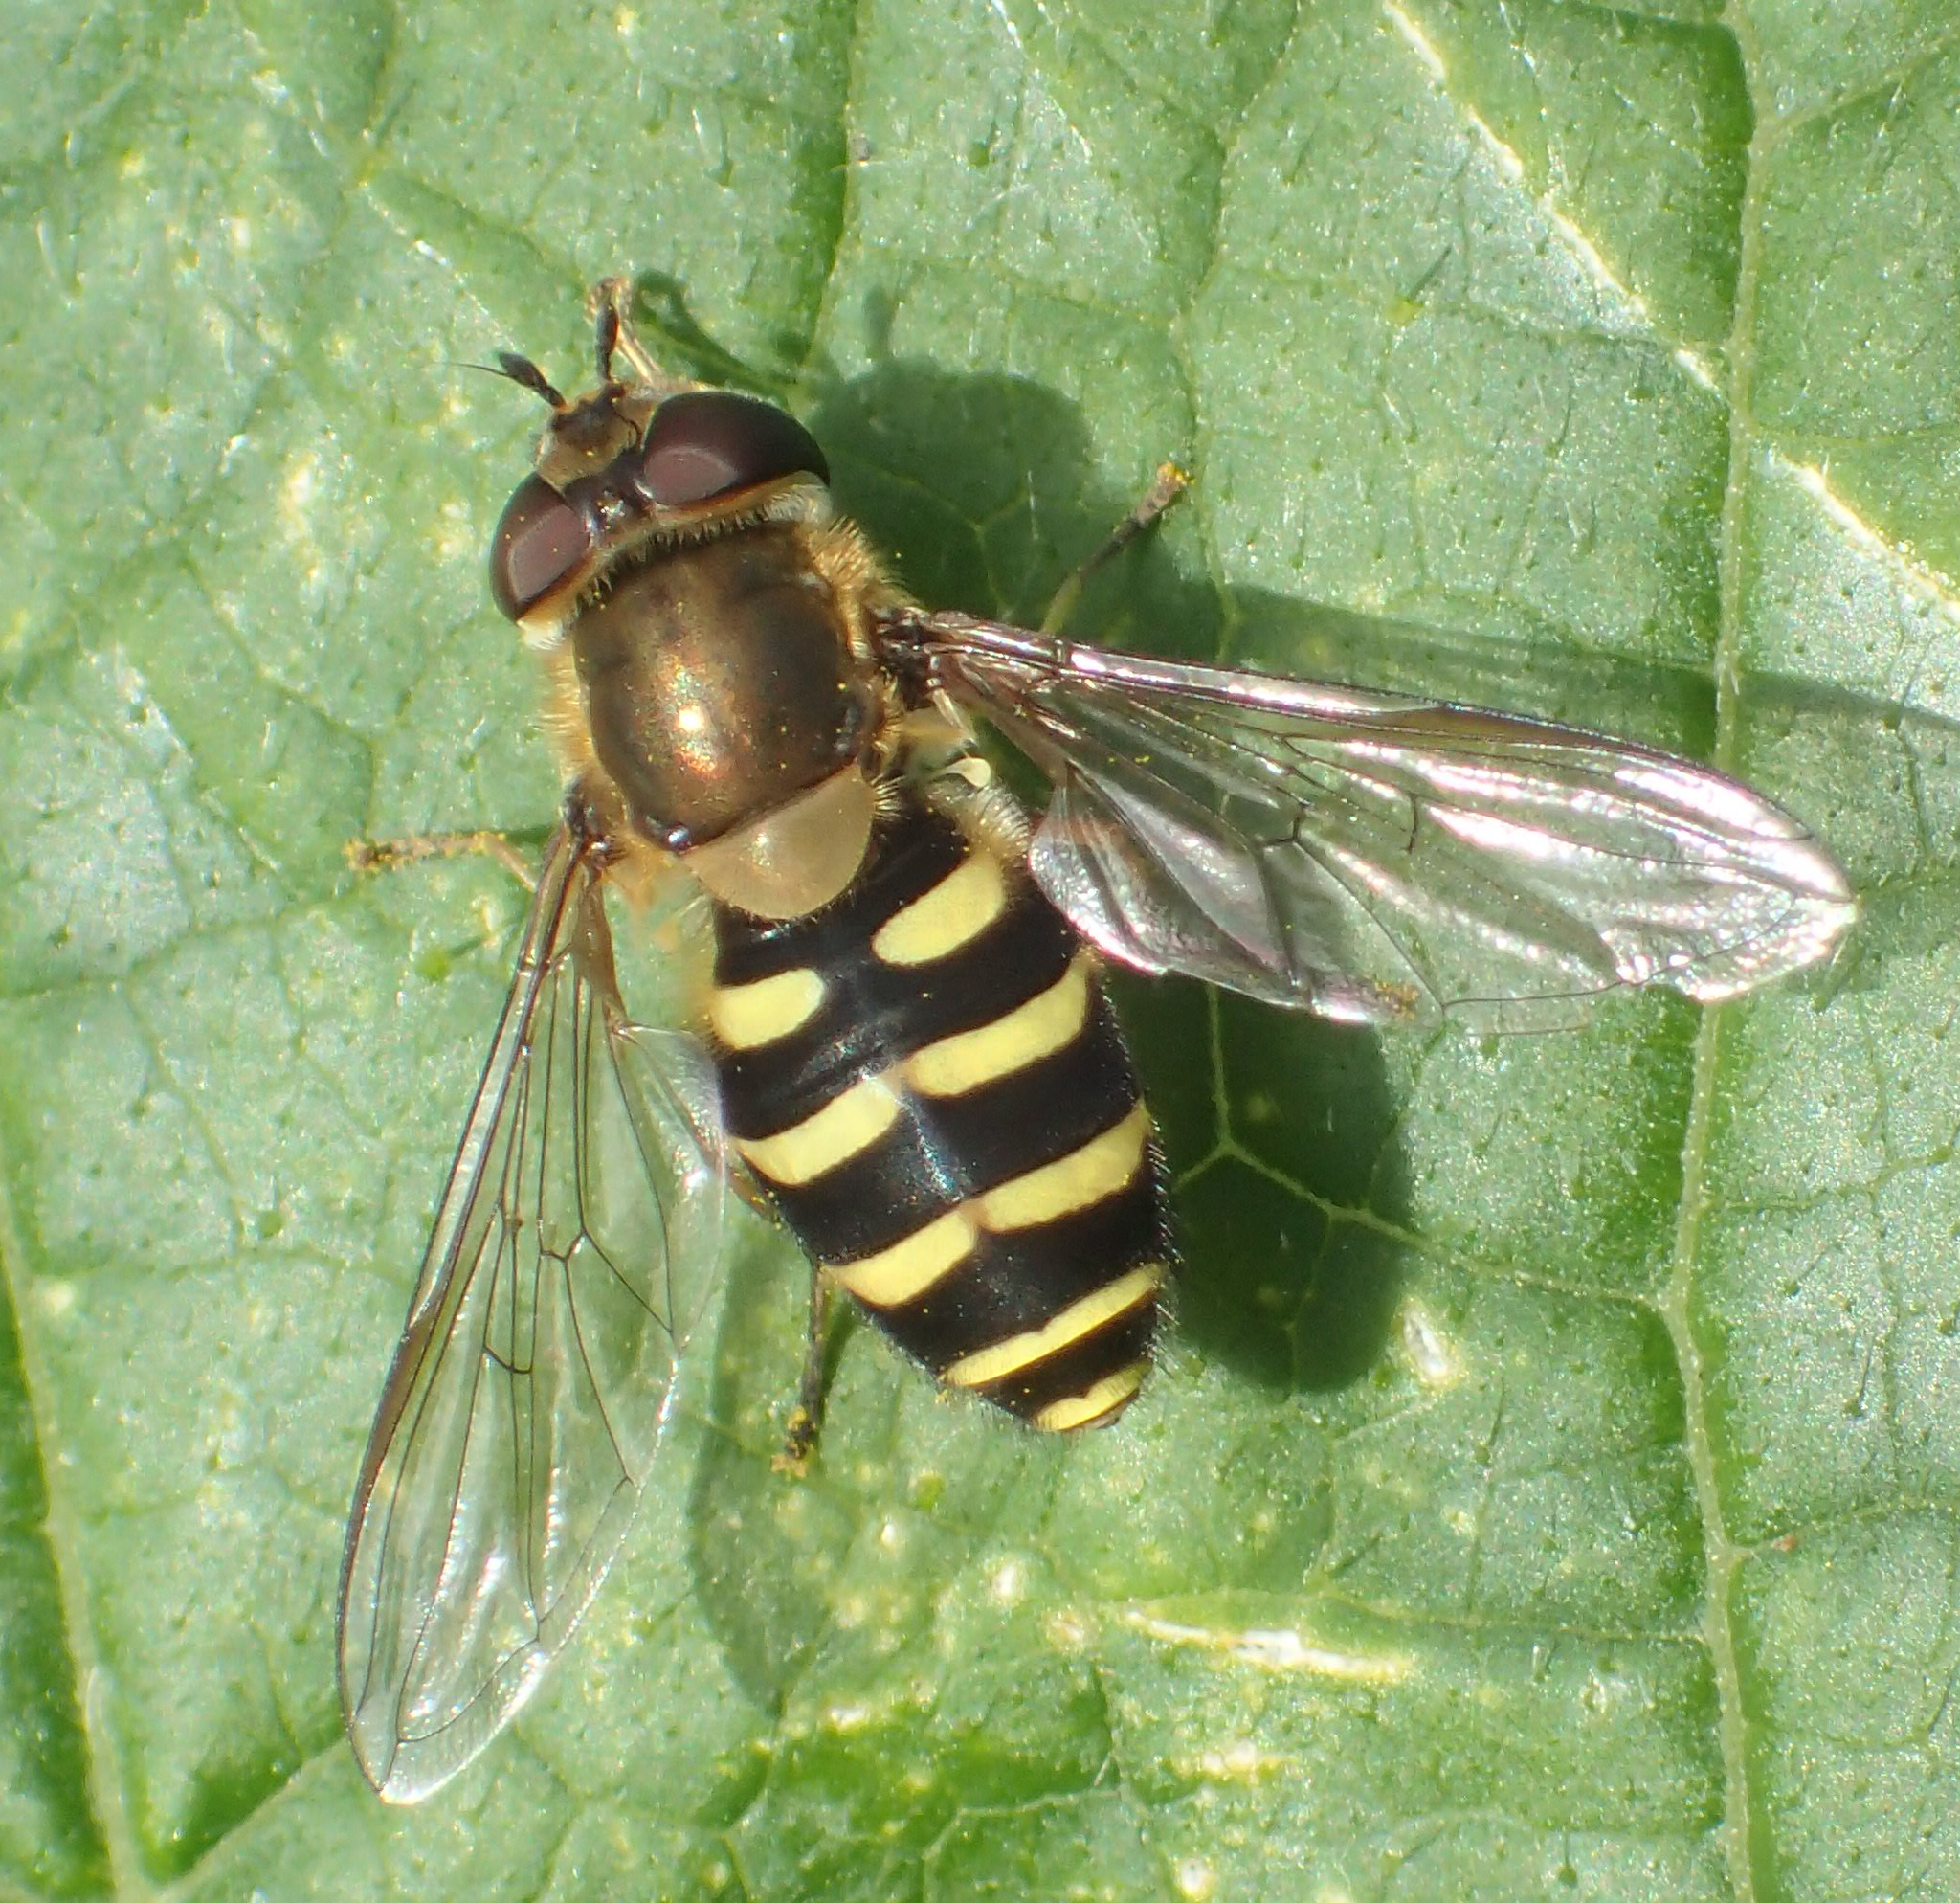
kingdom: Animalia
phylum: Arthropoda
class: Insecta
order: Diptera
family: Syrphidae
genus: Syrphus
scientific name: Syrphus torvus
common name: Hairy-eyed flower fly
